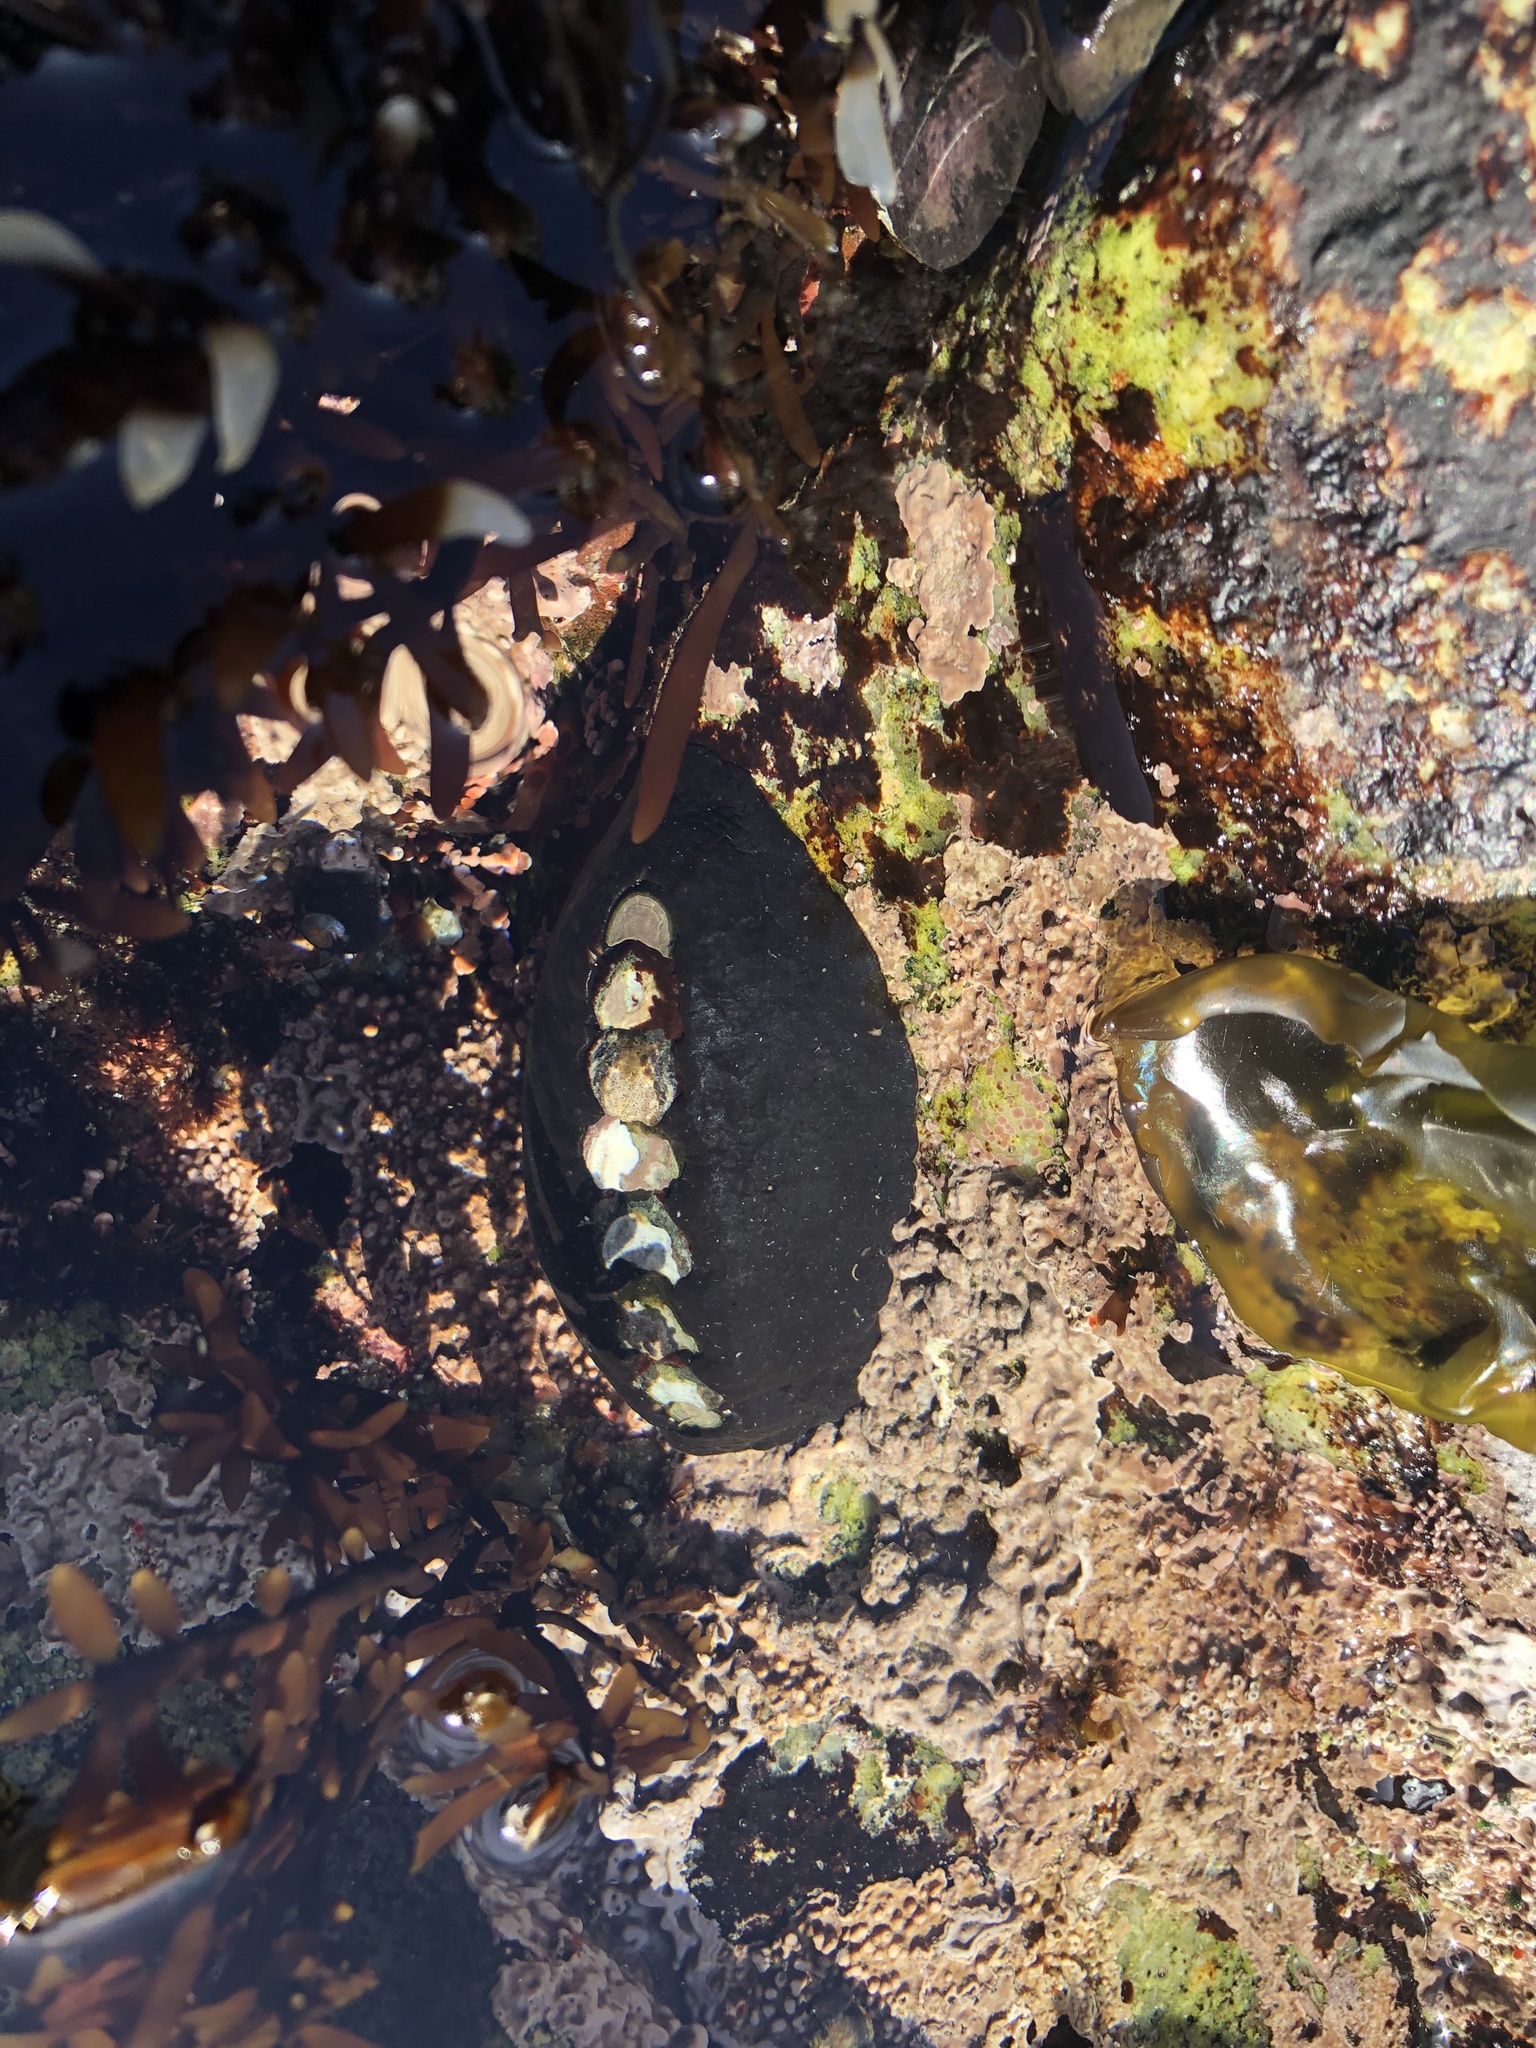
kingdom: Animalia
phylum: Mollusca
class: Polyplacophora
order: Chitonida
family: Mopaliidae
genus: Katharina
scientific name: Katharina tunicata
